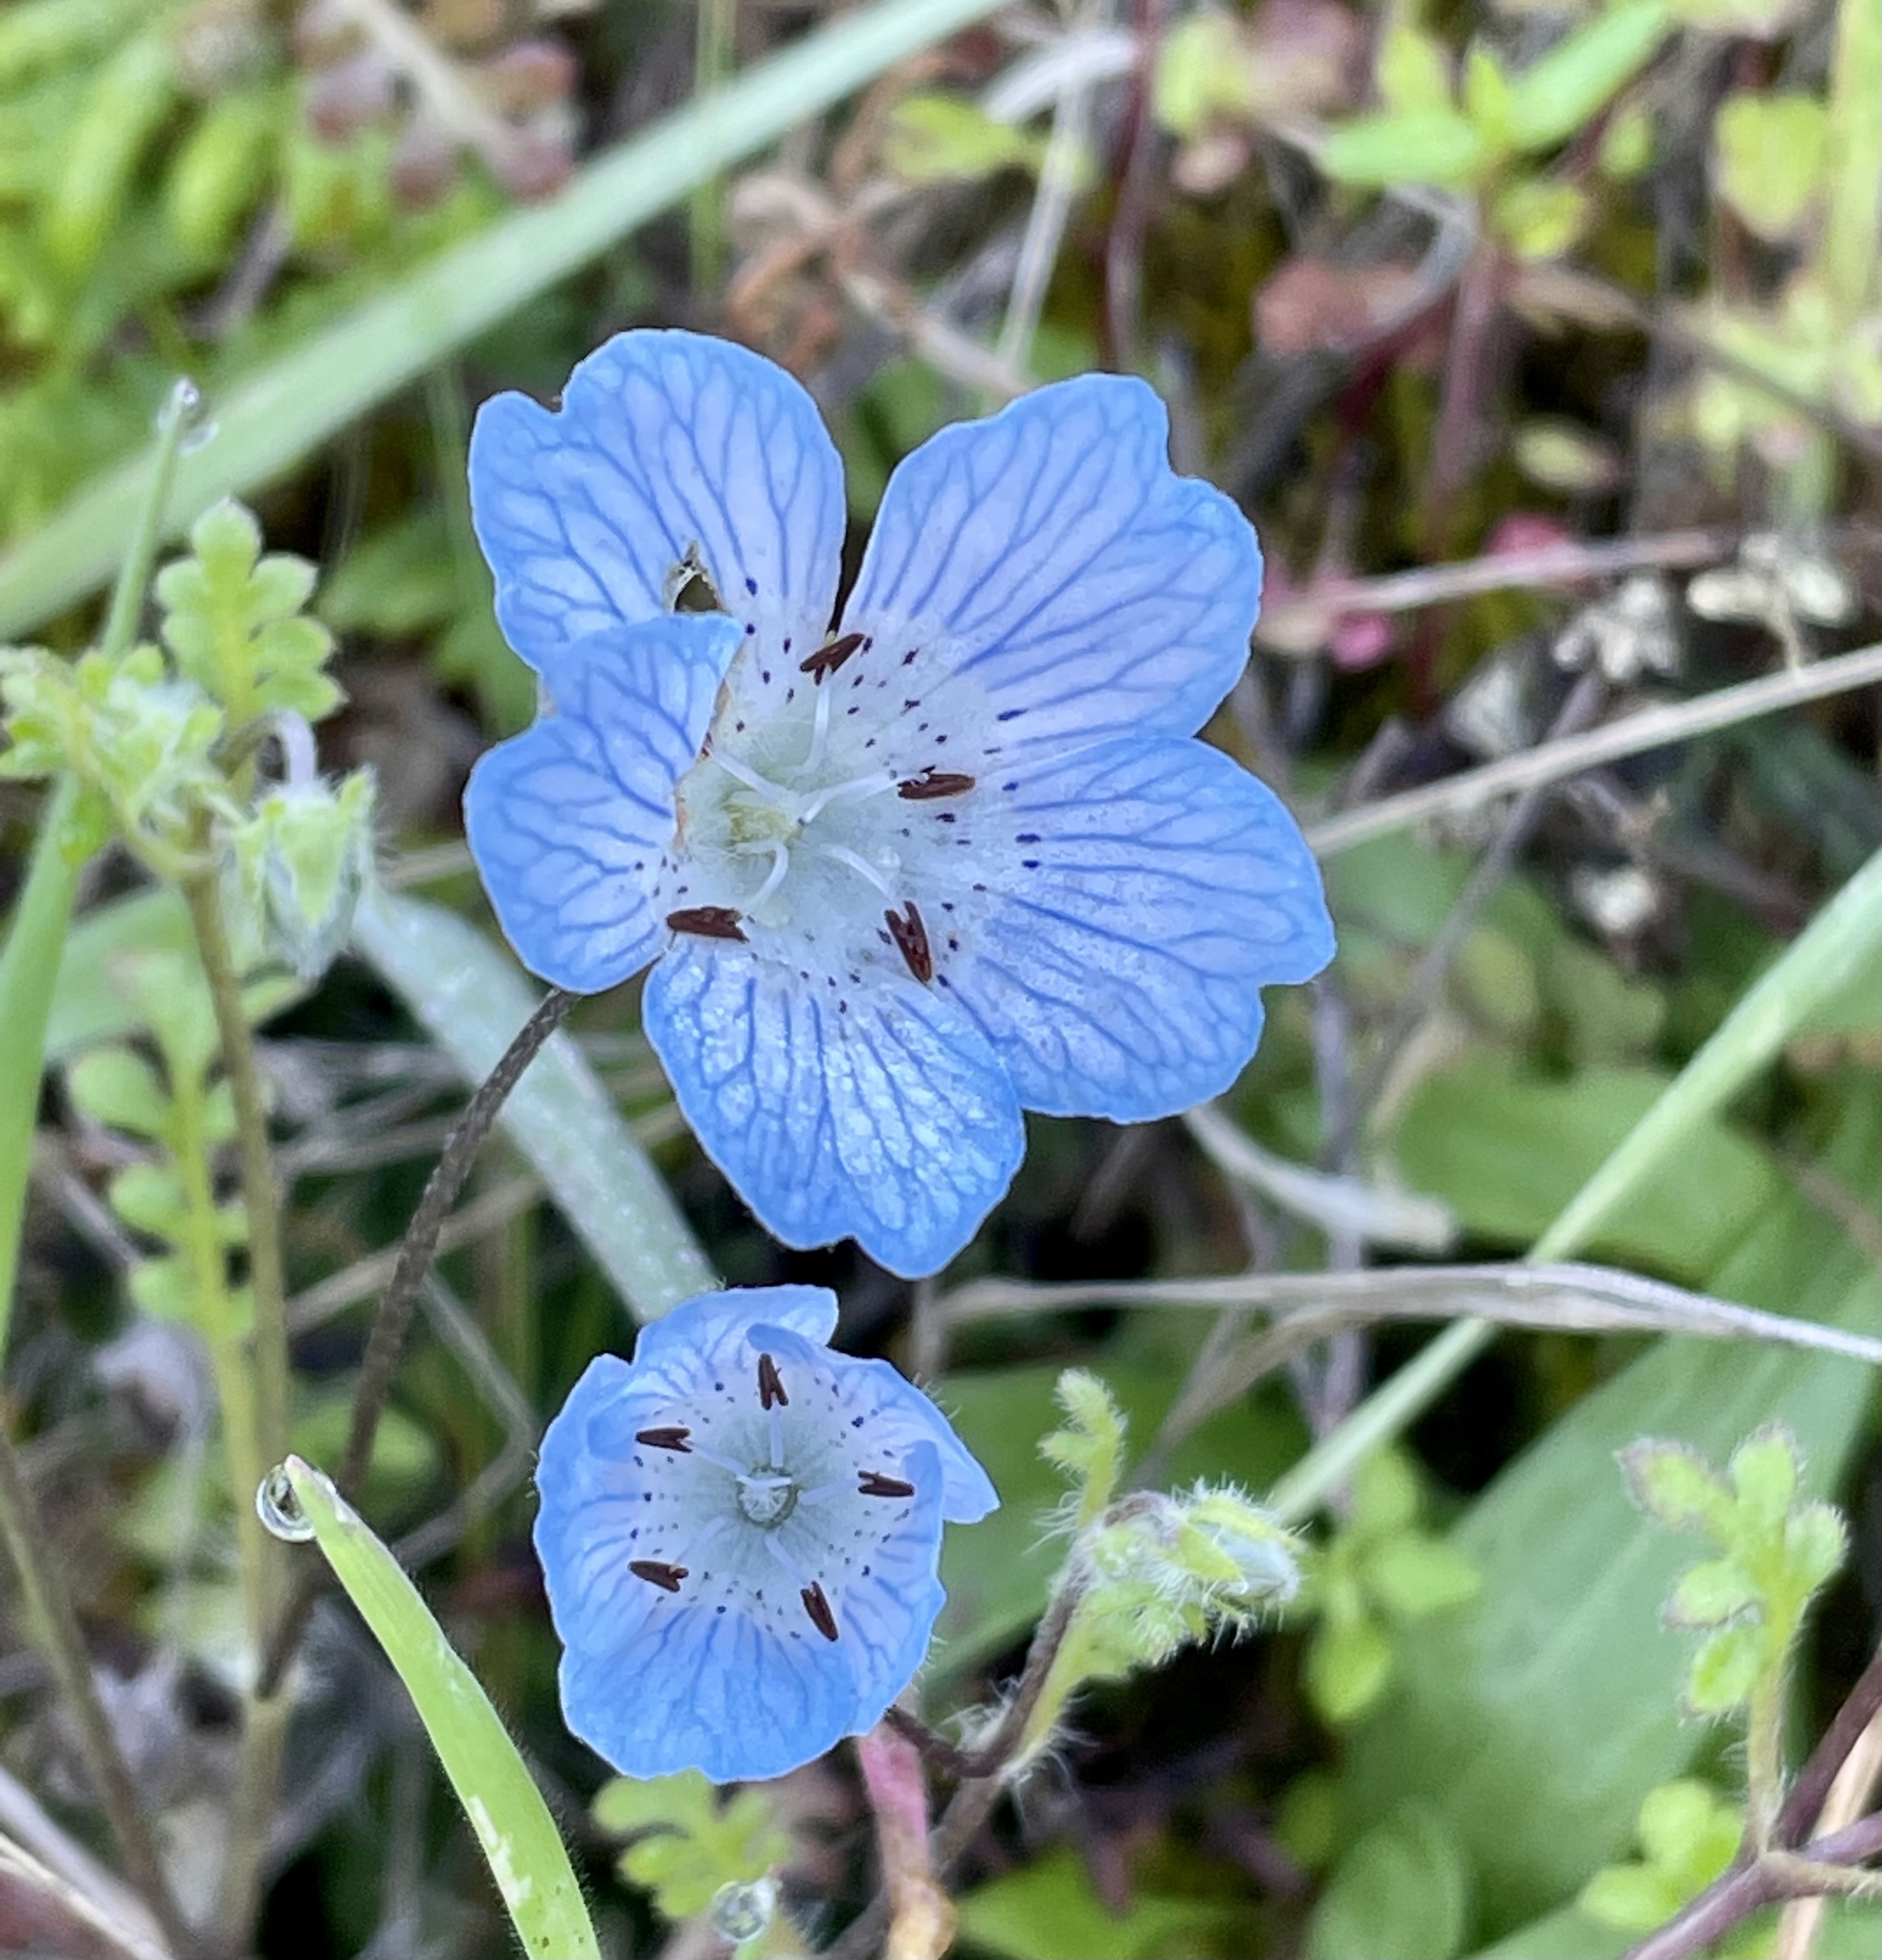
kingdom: Plantae
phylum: Tracheophyta
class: Magnoliopsida
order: Boraginales
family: Hydrophyllaceae
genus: Nemophila
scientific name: Nemophila menziesii
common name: Baby's-blue-eyes
